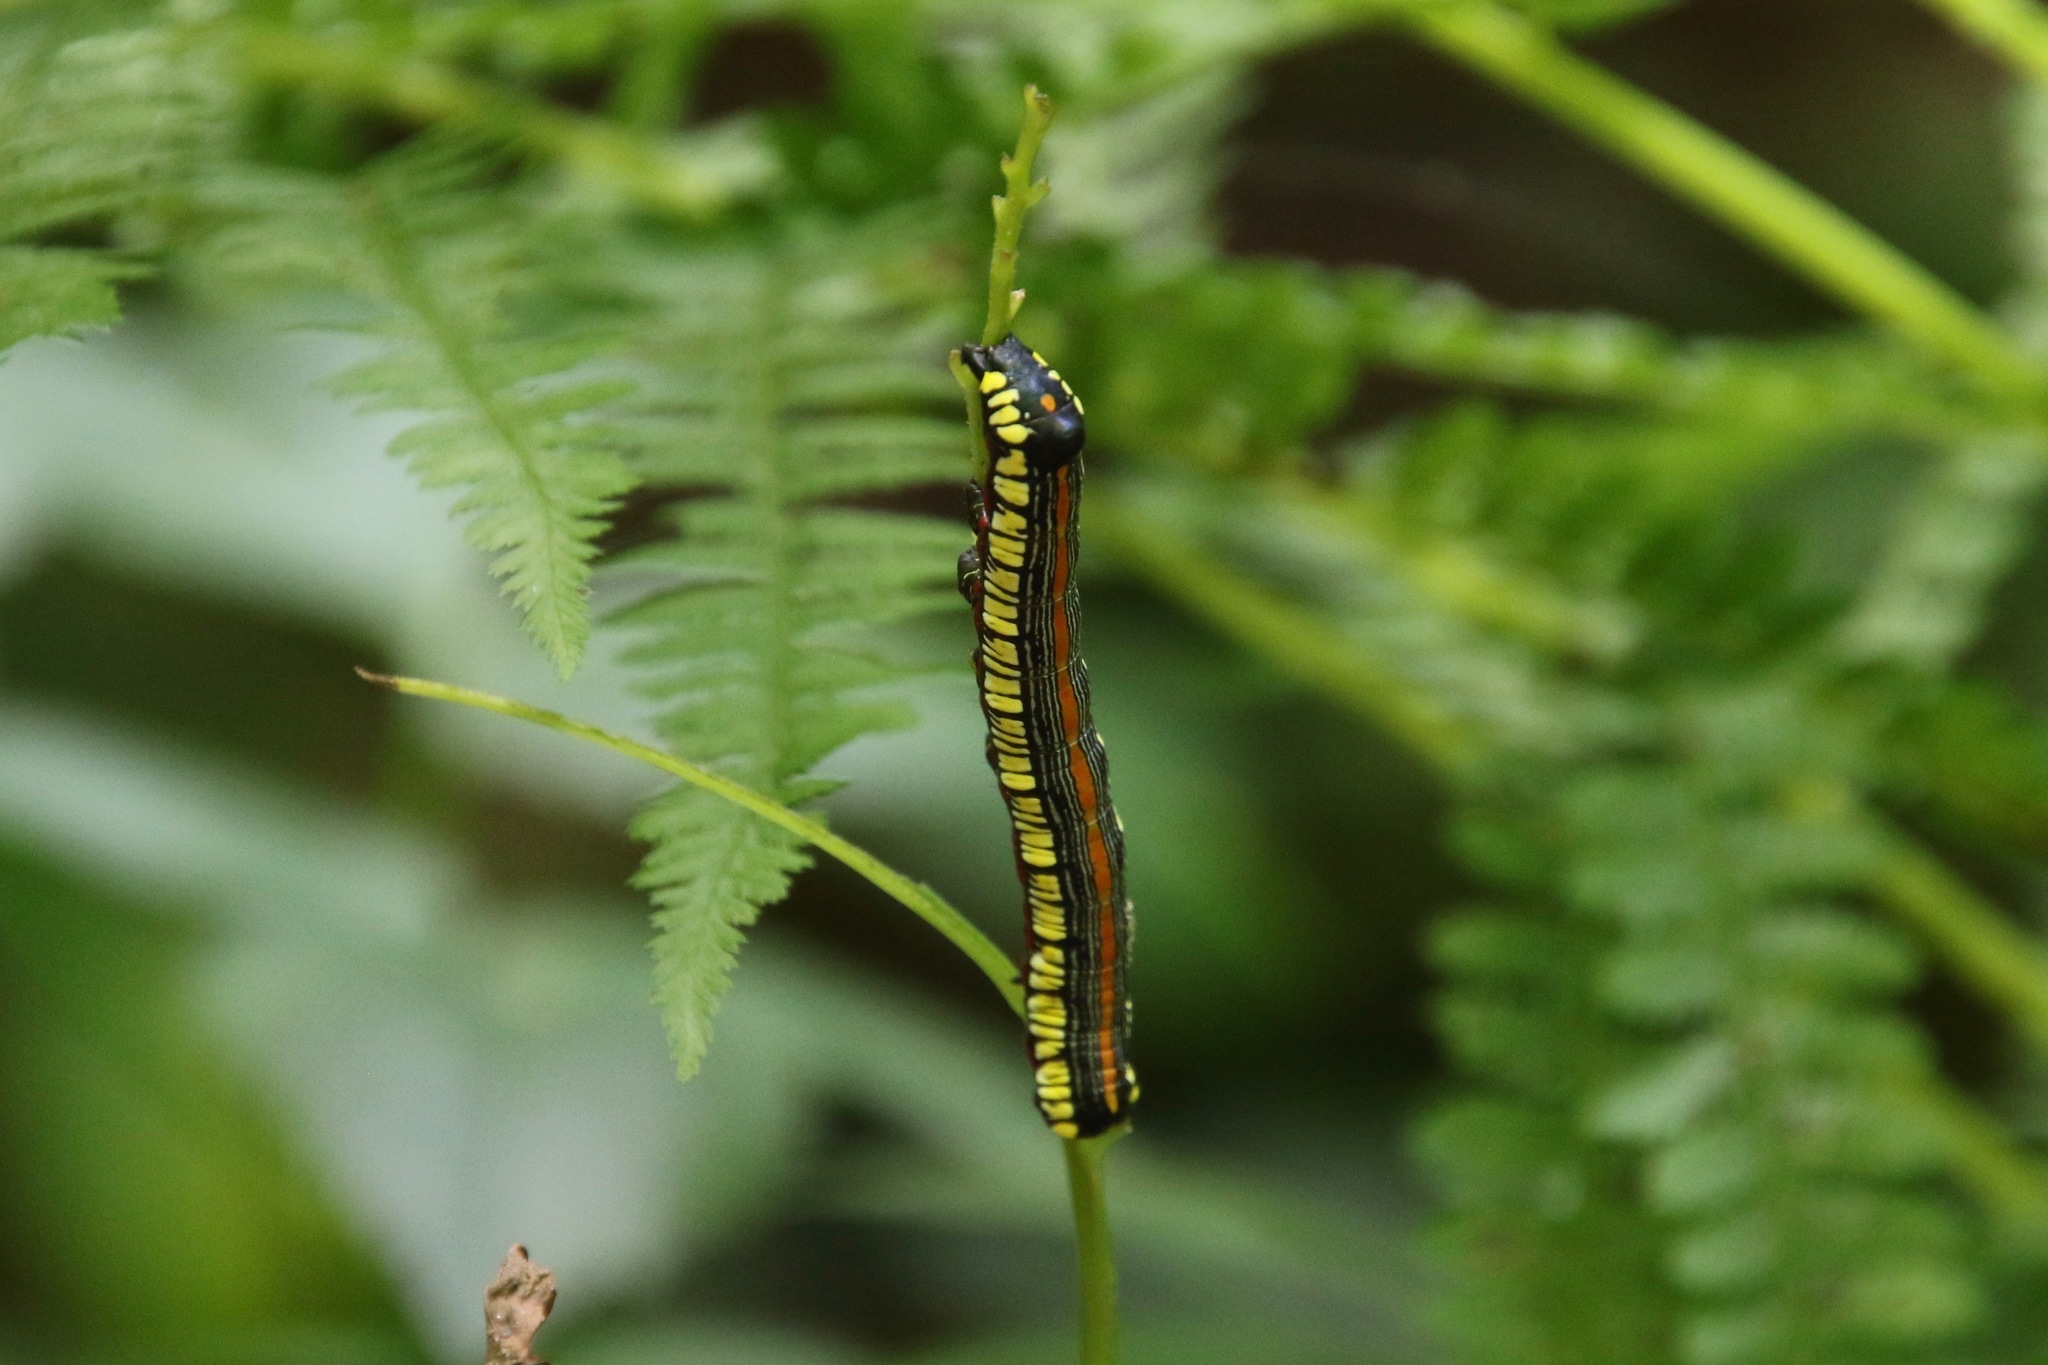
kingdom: Animalia
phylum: Arthropoda
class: Insecta
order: Lepidoptera
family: Noctuidae
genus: Cucullia
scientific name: Cucullia convexipennis
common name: Brown-hooded owlet
